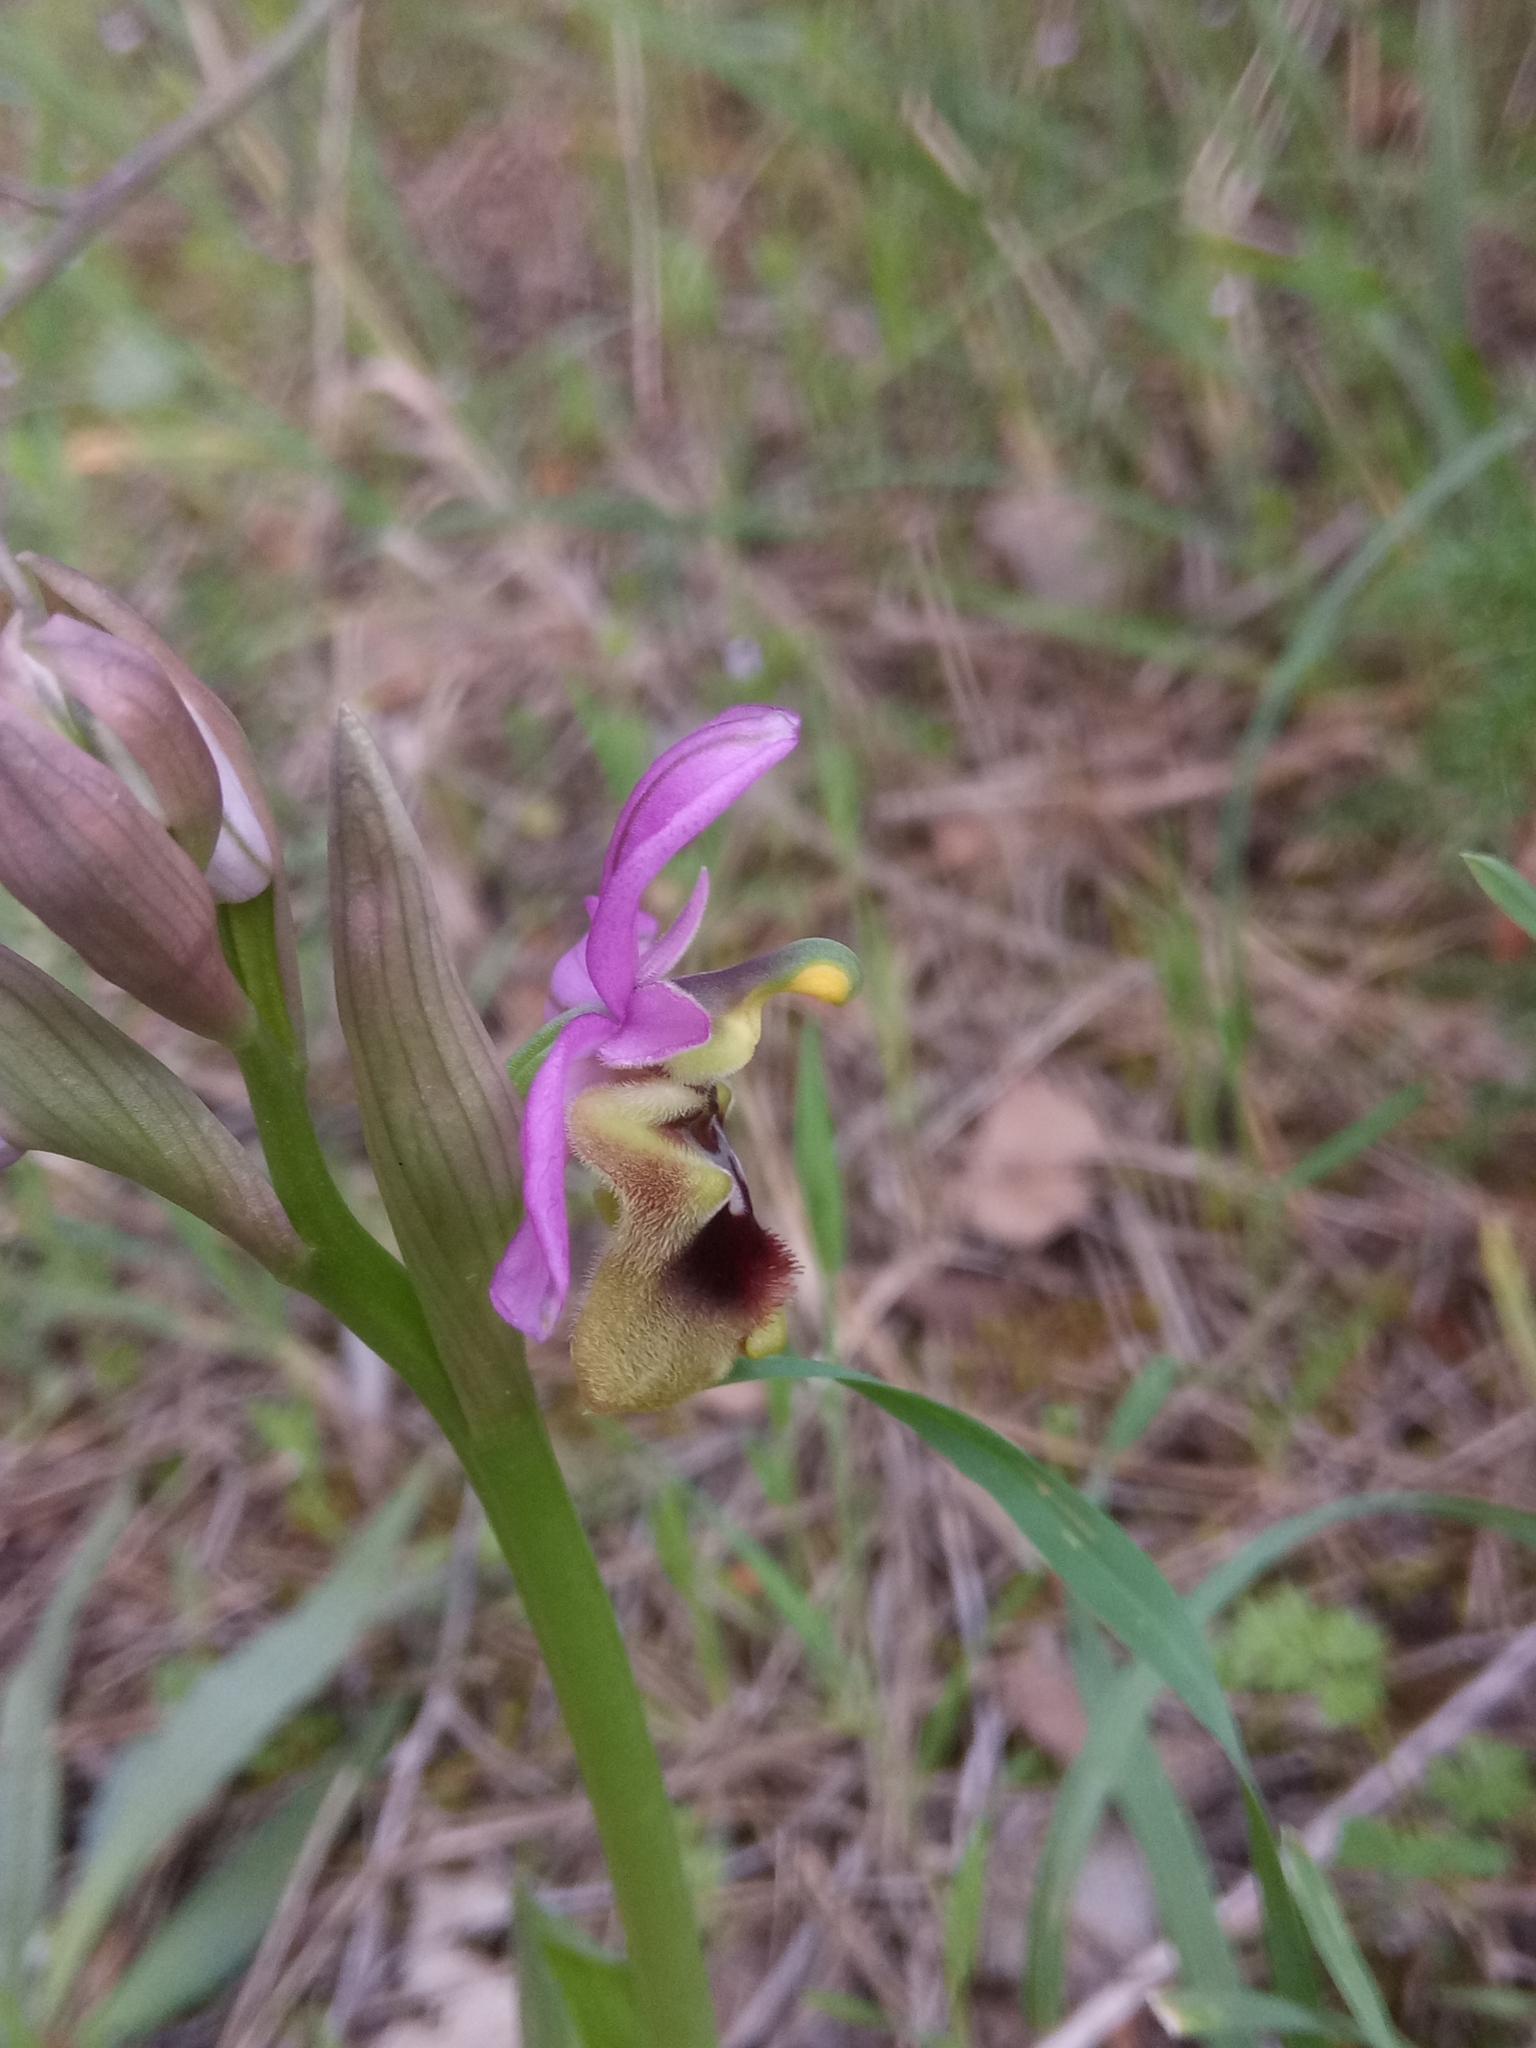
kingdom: Plantae
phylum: Tracheophyta
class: Liliopsida
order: Asparagales
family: Orchidaceae
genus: Ophrys
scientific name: Ophrys tenthredinifera
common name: Sawfly orchid
